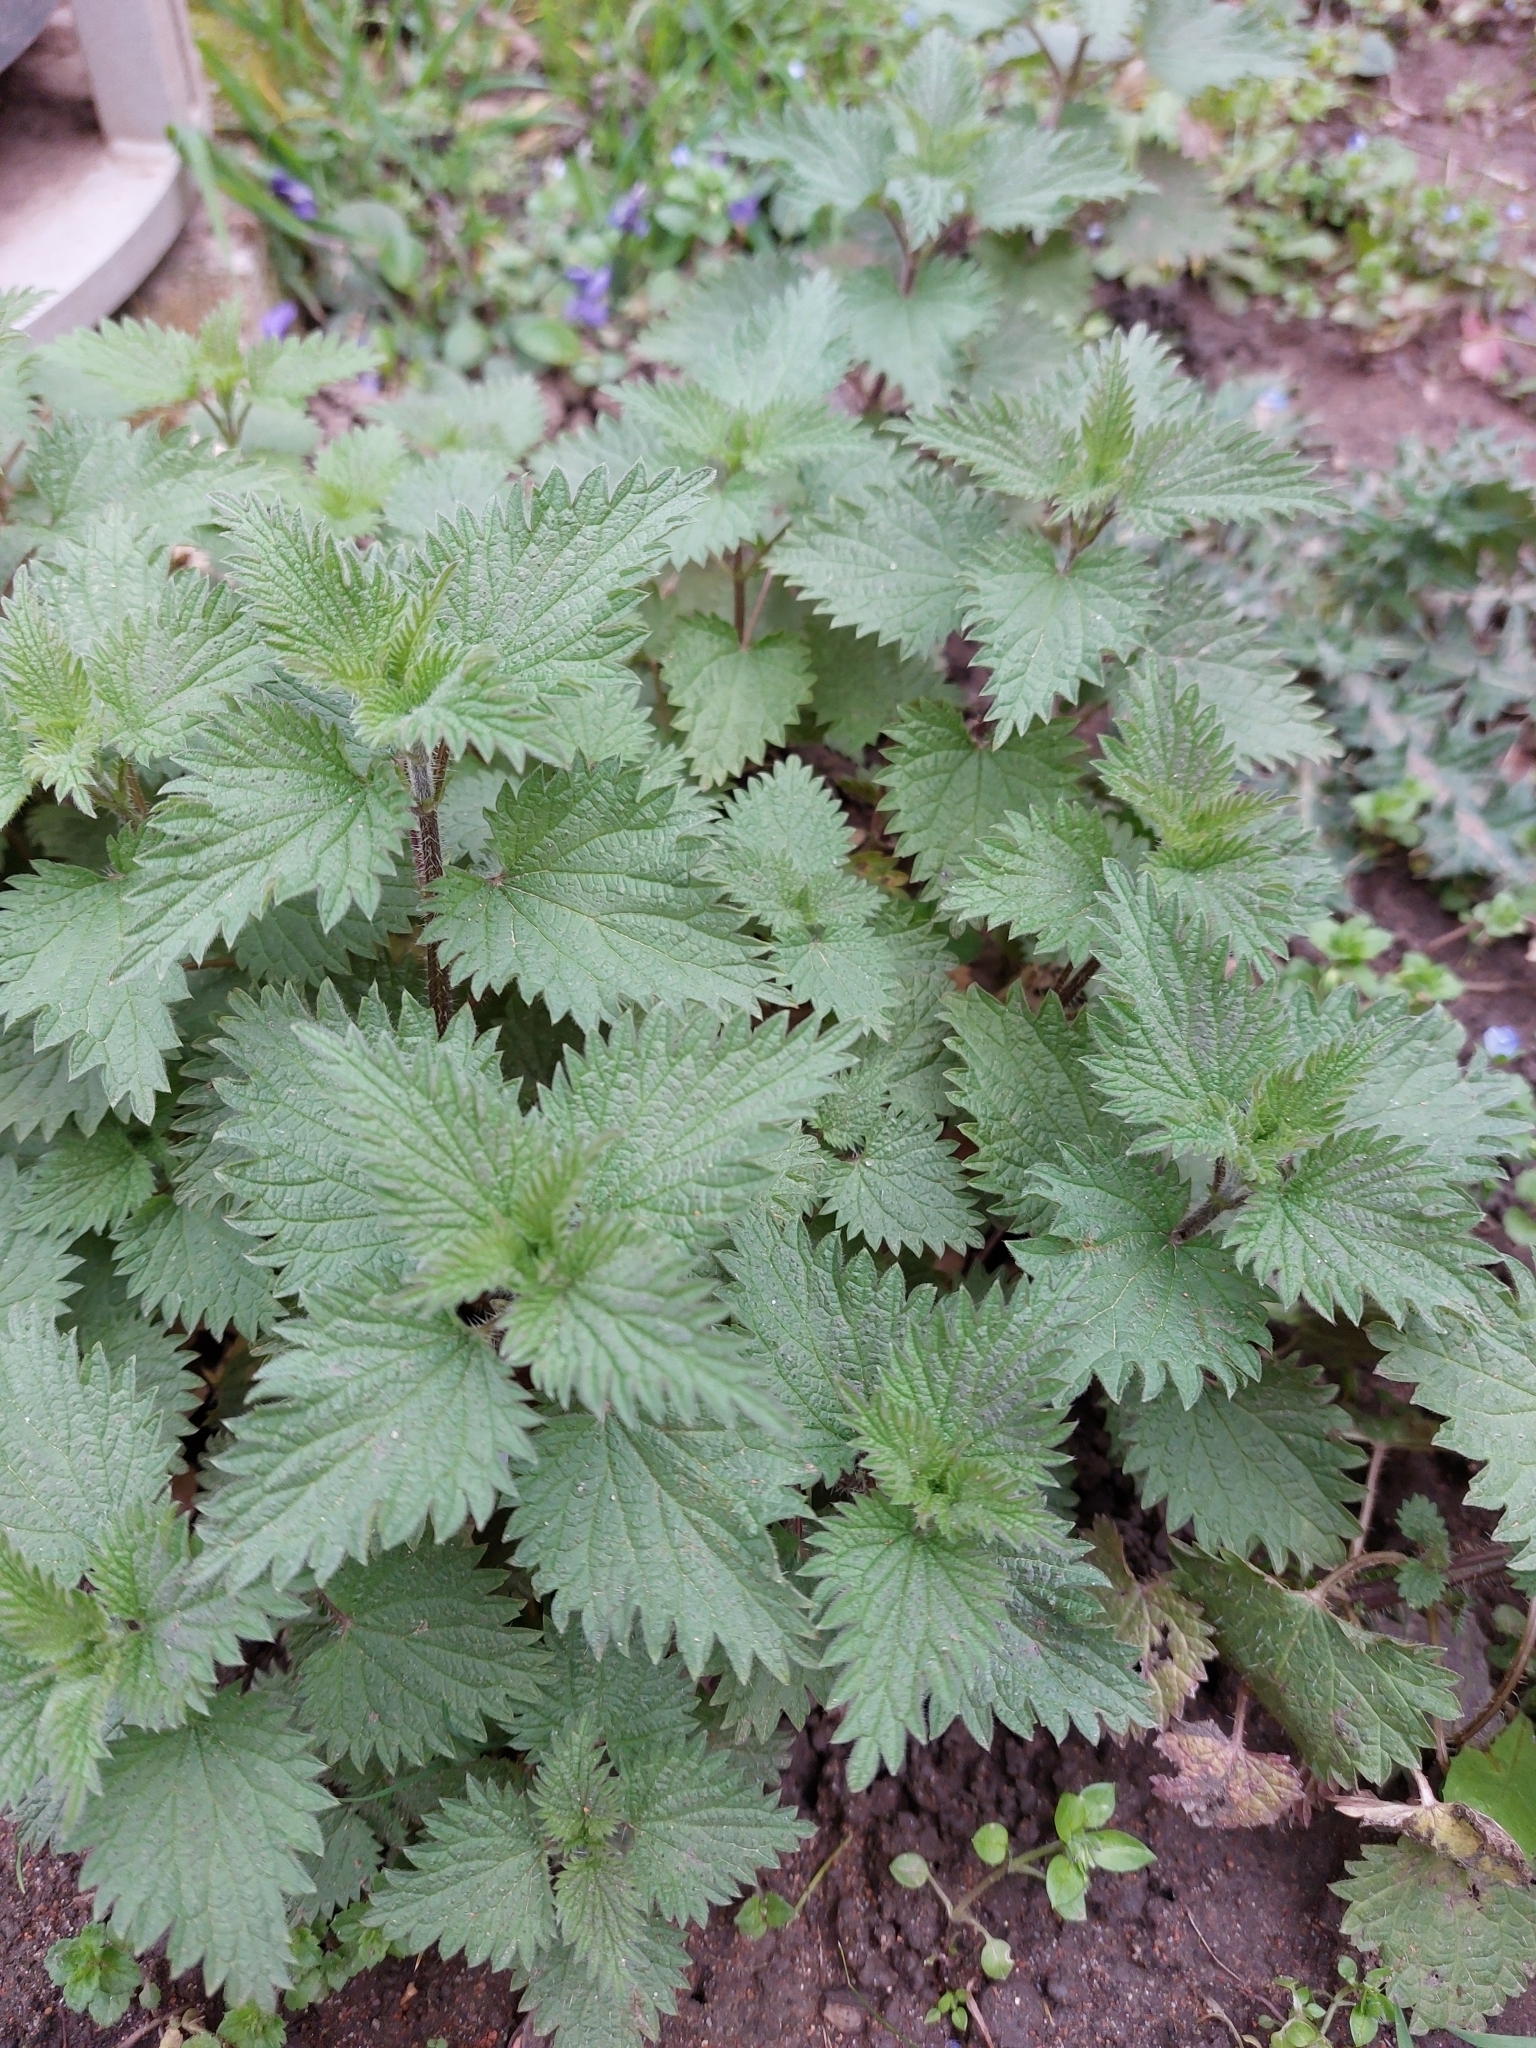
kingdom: Plantae
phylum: Tracheophyta
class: Magnoliopsida
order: Rosales
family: Urticaceae
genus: Urtica
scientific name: Urtica dioica
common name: Common nettle
